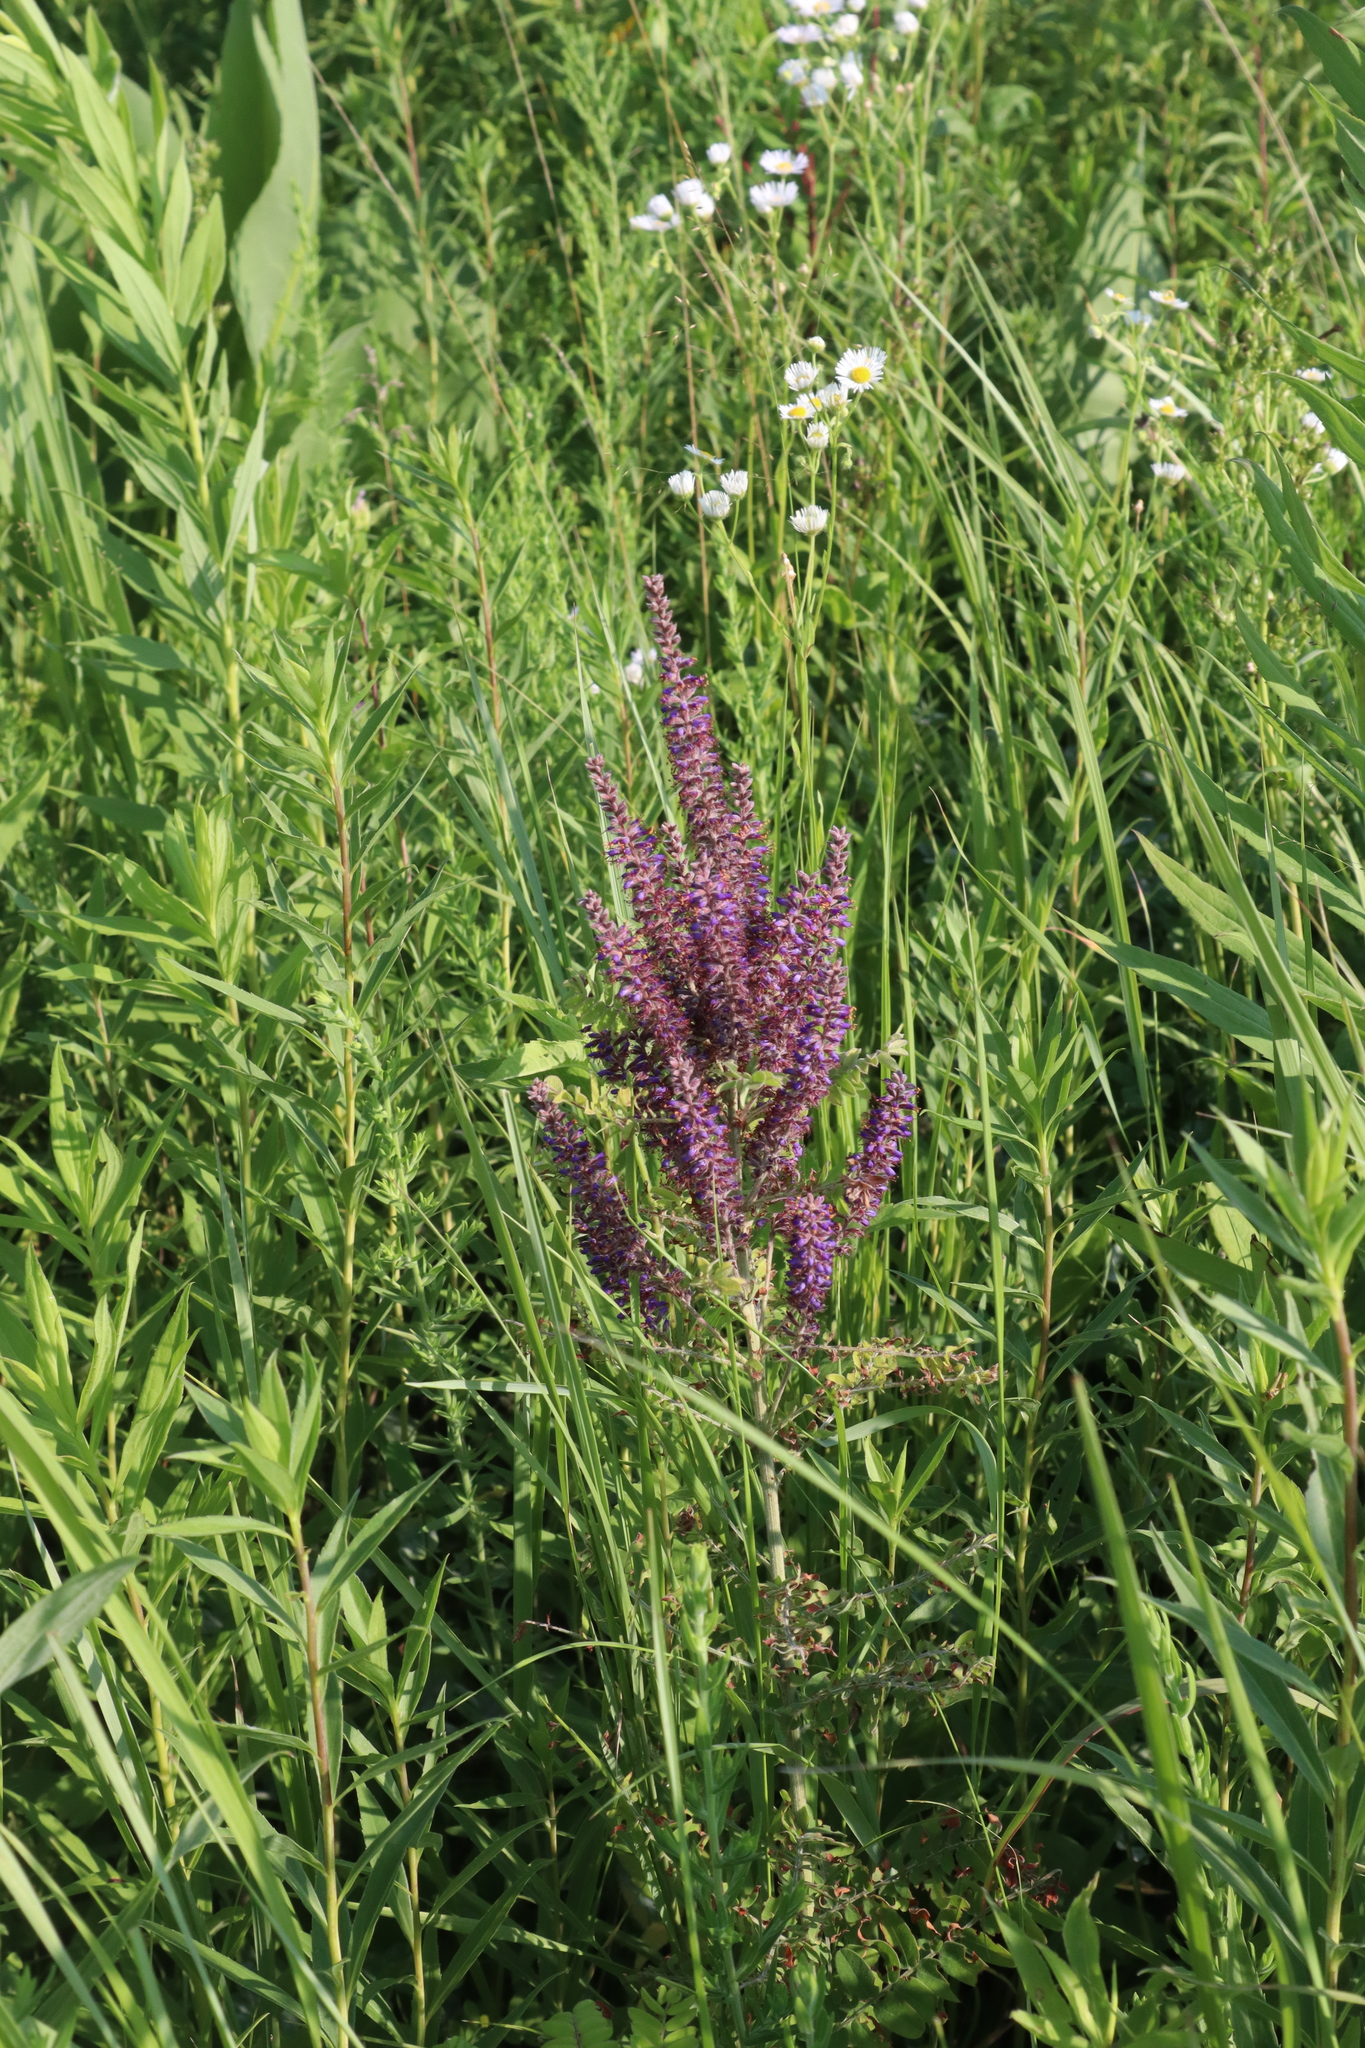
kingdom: Plantae
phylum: Tracheophyta
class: Magnoliopsida
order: Fabales
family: Fabaceae
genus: Amorpha
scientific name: Amorpha canescens
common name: Leadplant
